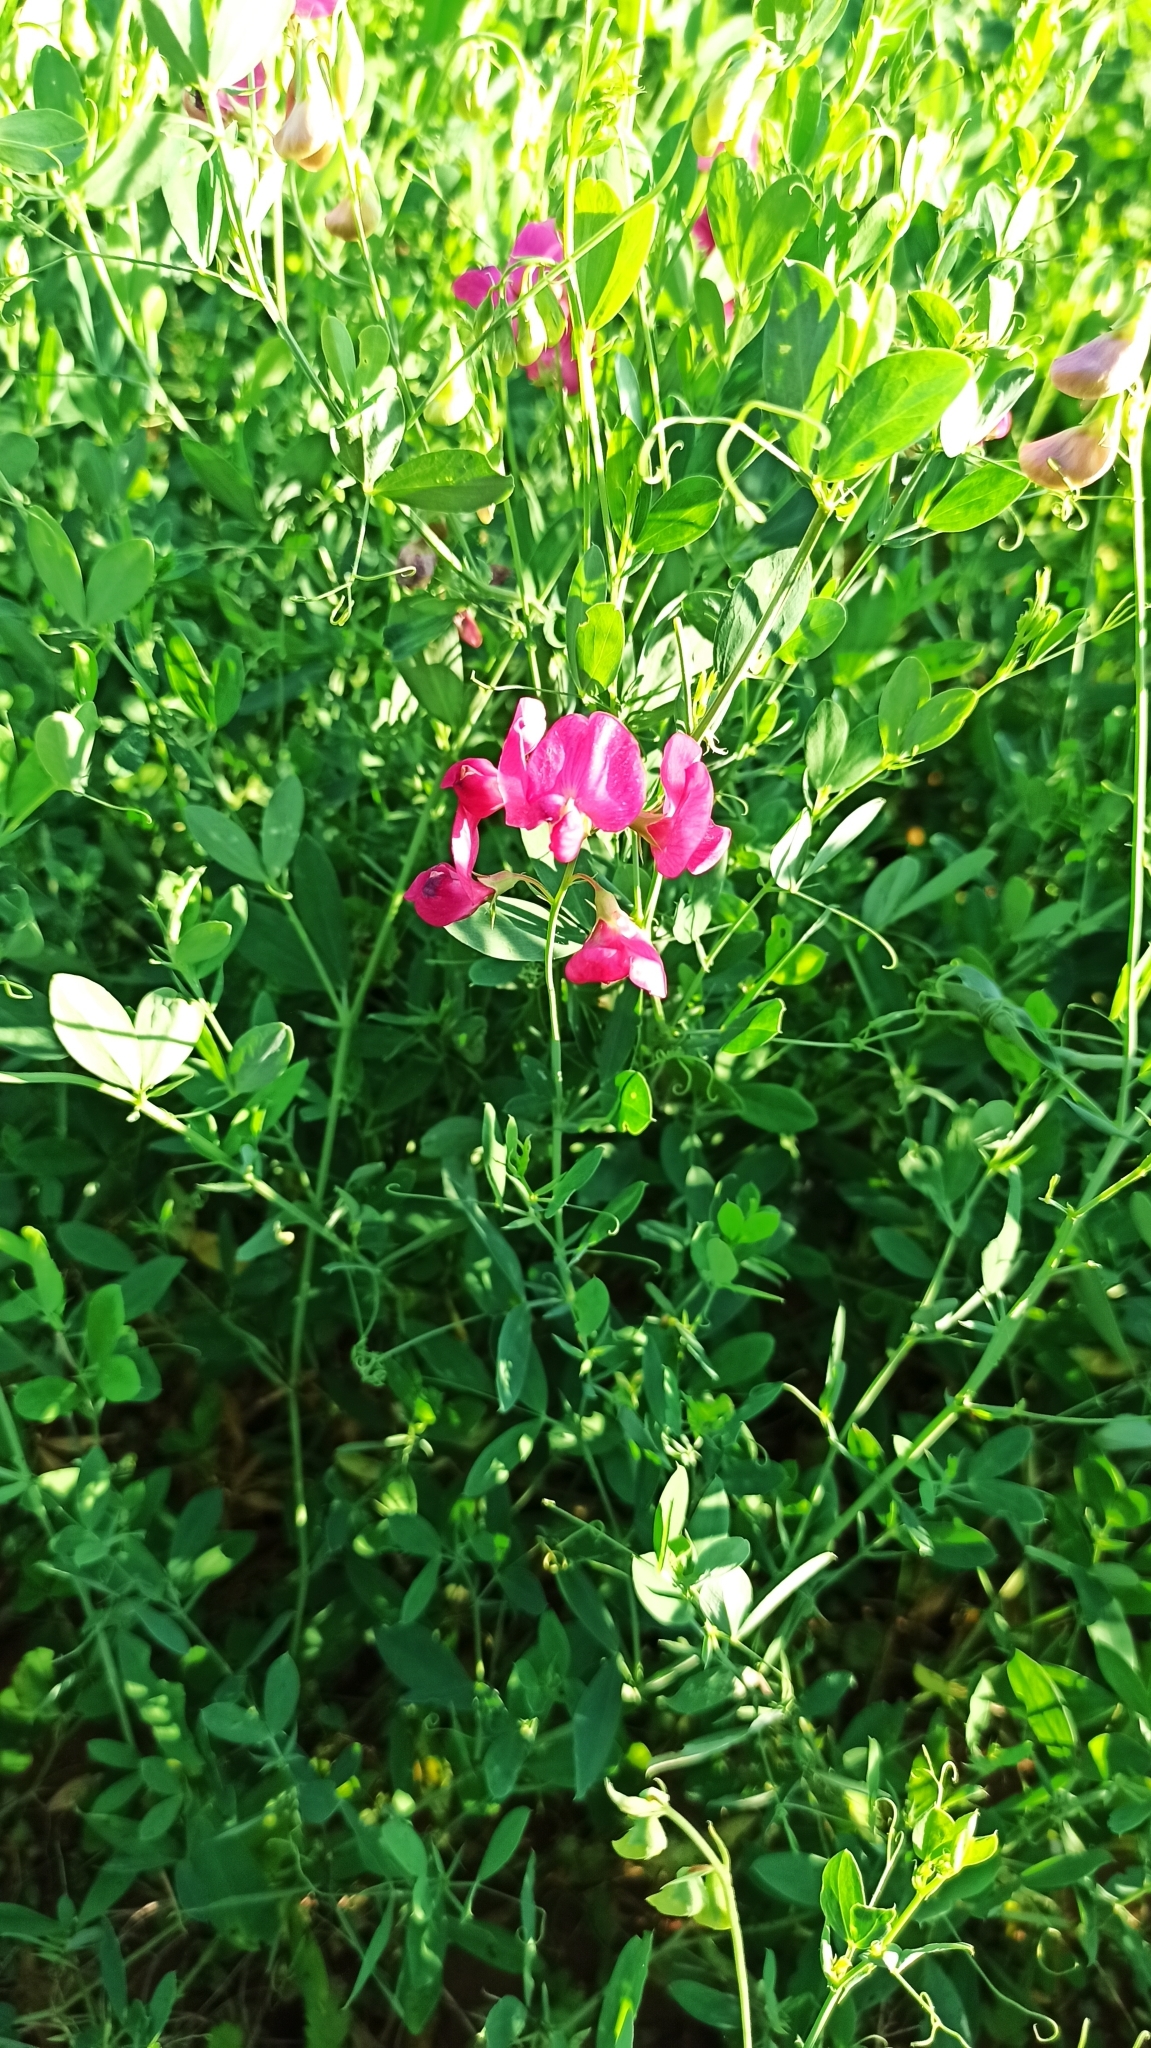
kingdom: Plantae
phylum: Tracheophyta
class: Magnoliopsida
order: Fabales
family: Fabaceae
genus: Lathyrus
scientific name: Lathyrus tuberosus
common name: Tuberous pea
